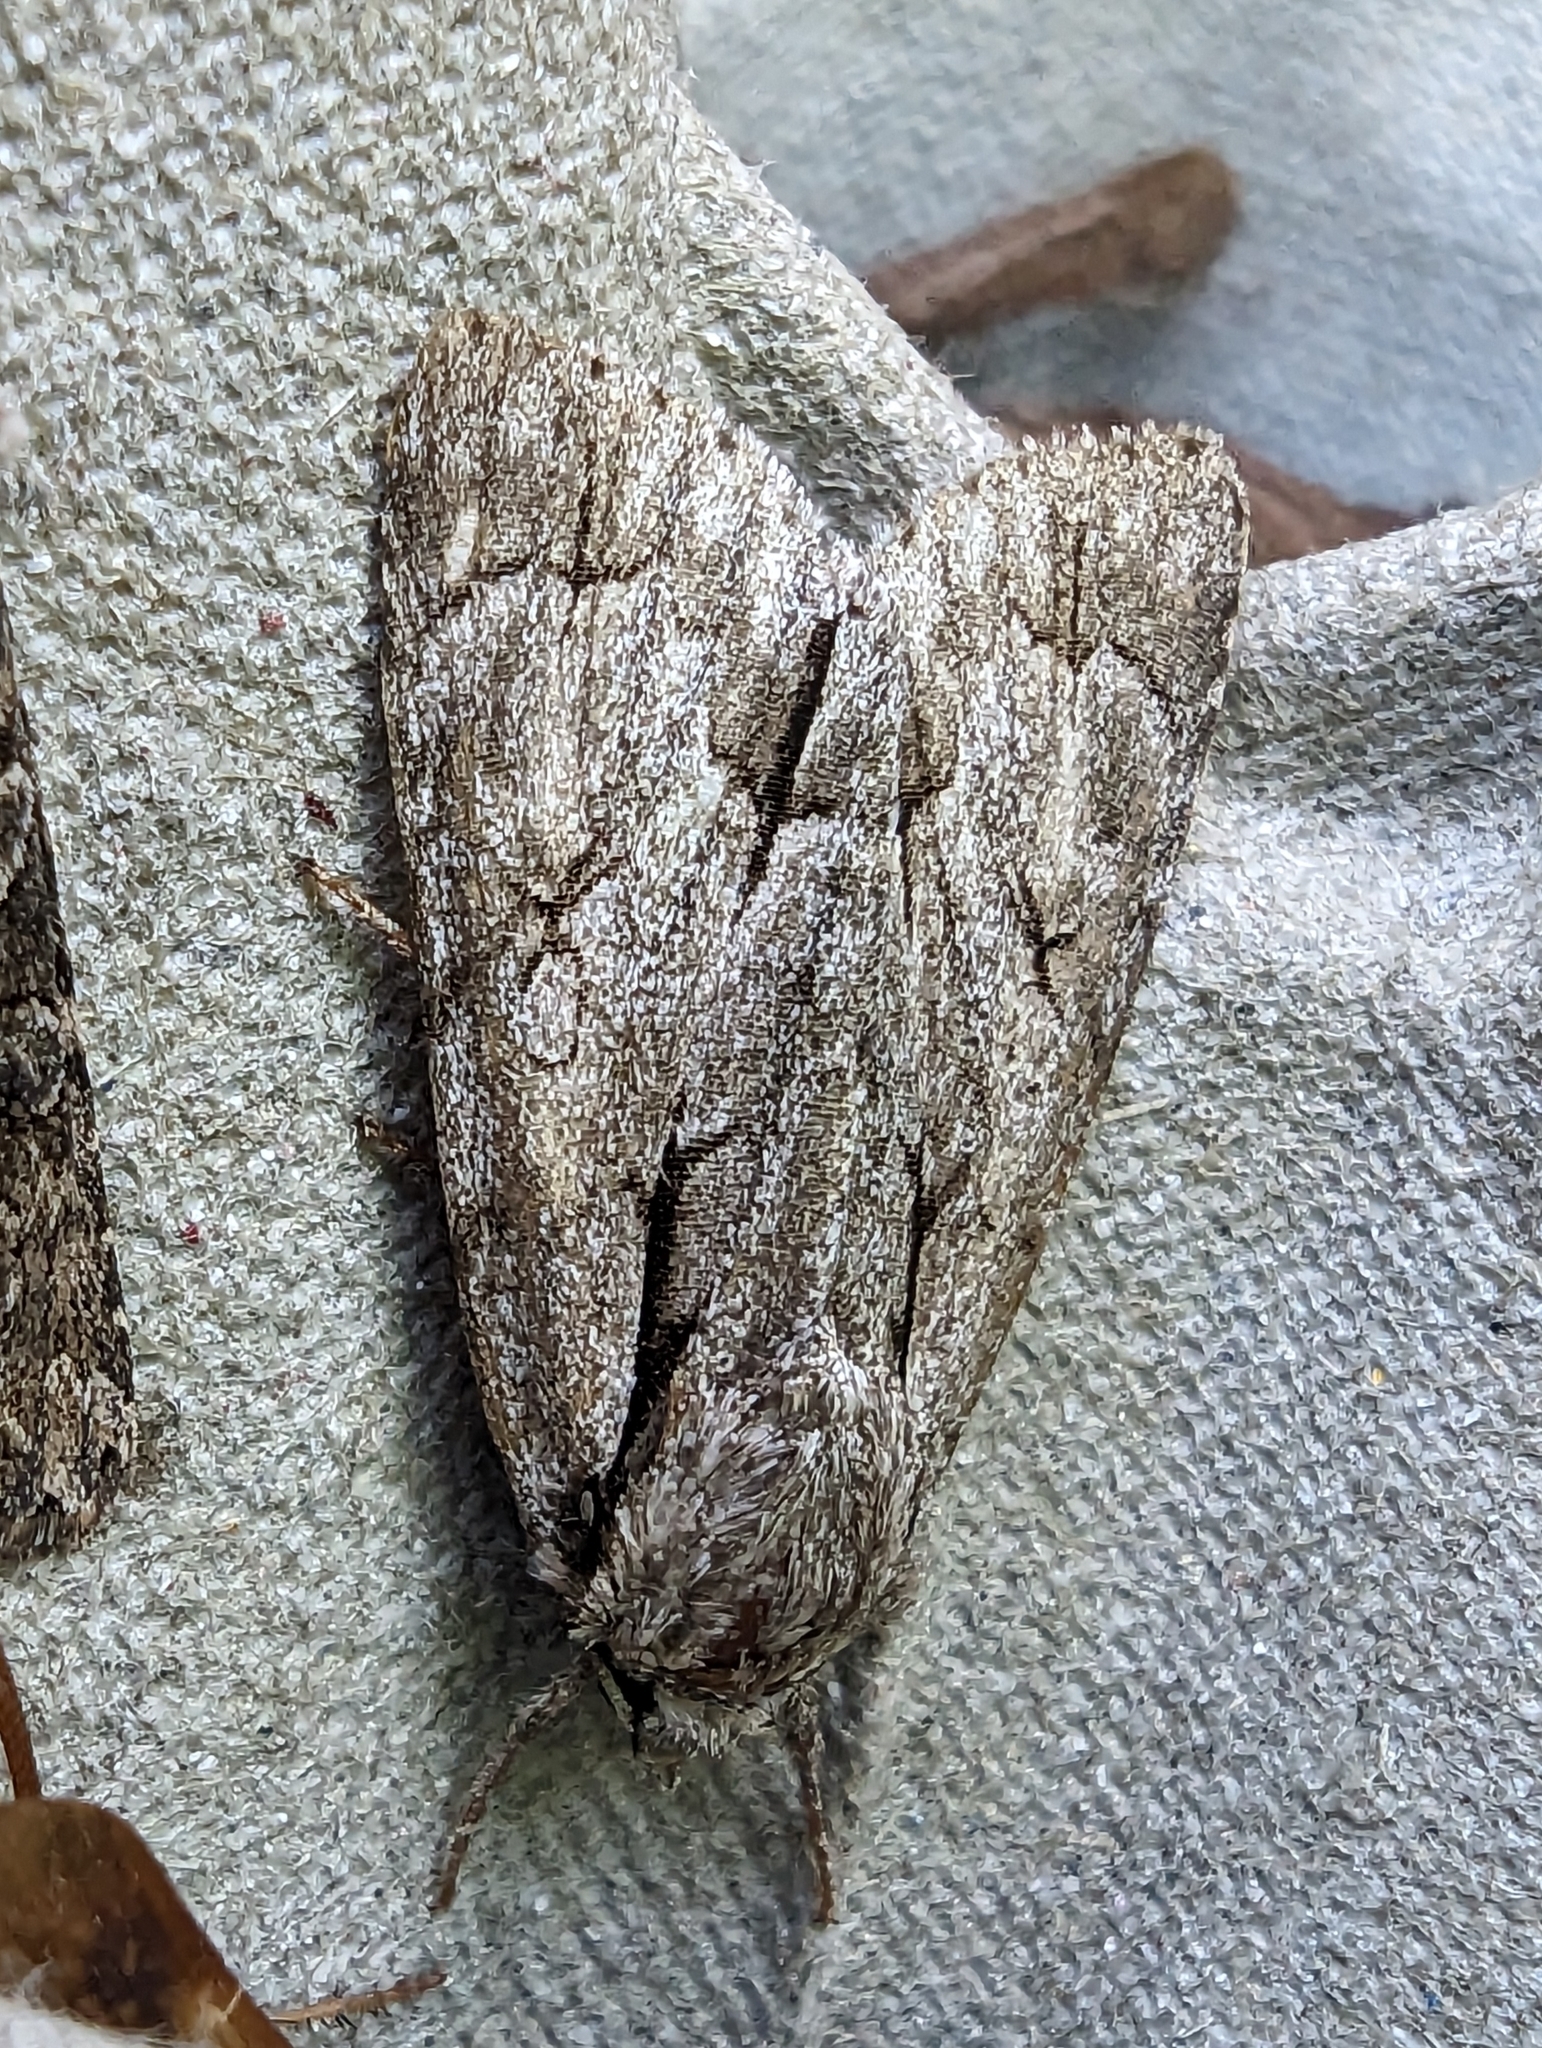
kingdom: Animalia
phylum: Arthropoda
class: Insecta
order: Lepidoptera
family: Noctuidae
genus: Acronicta
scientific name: Acronicta
